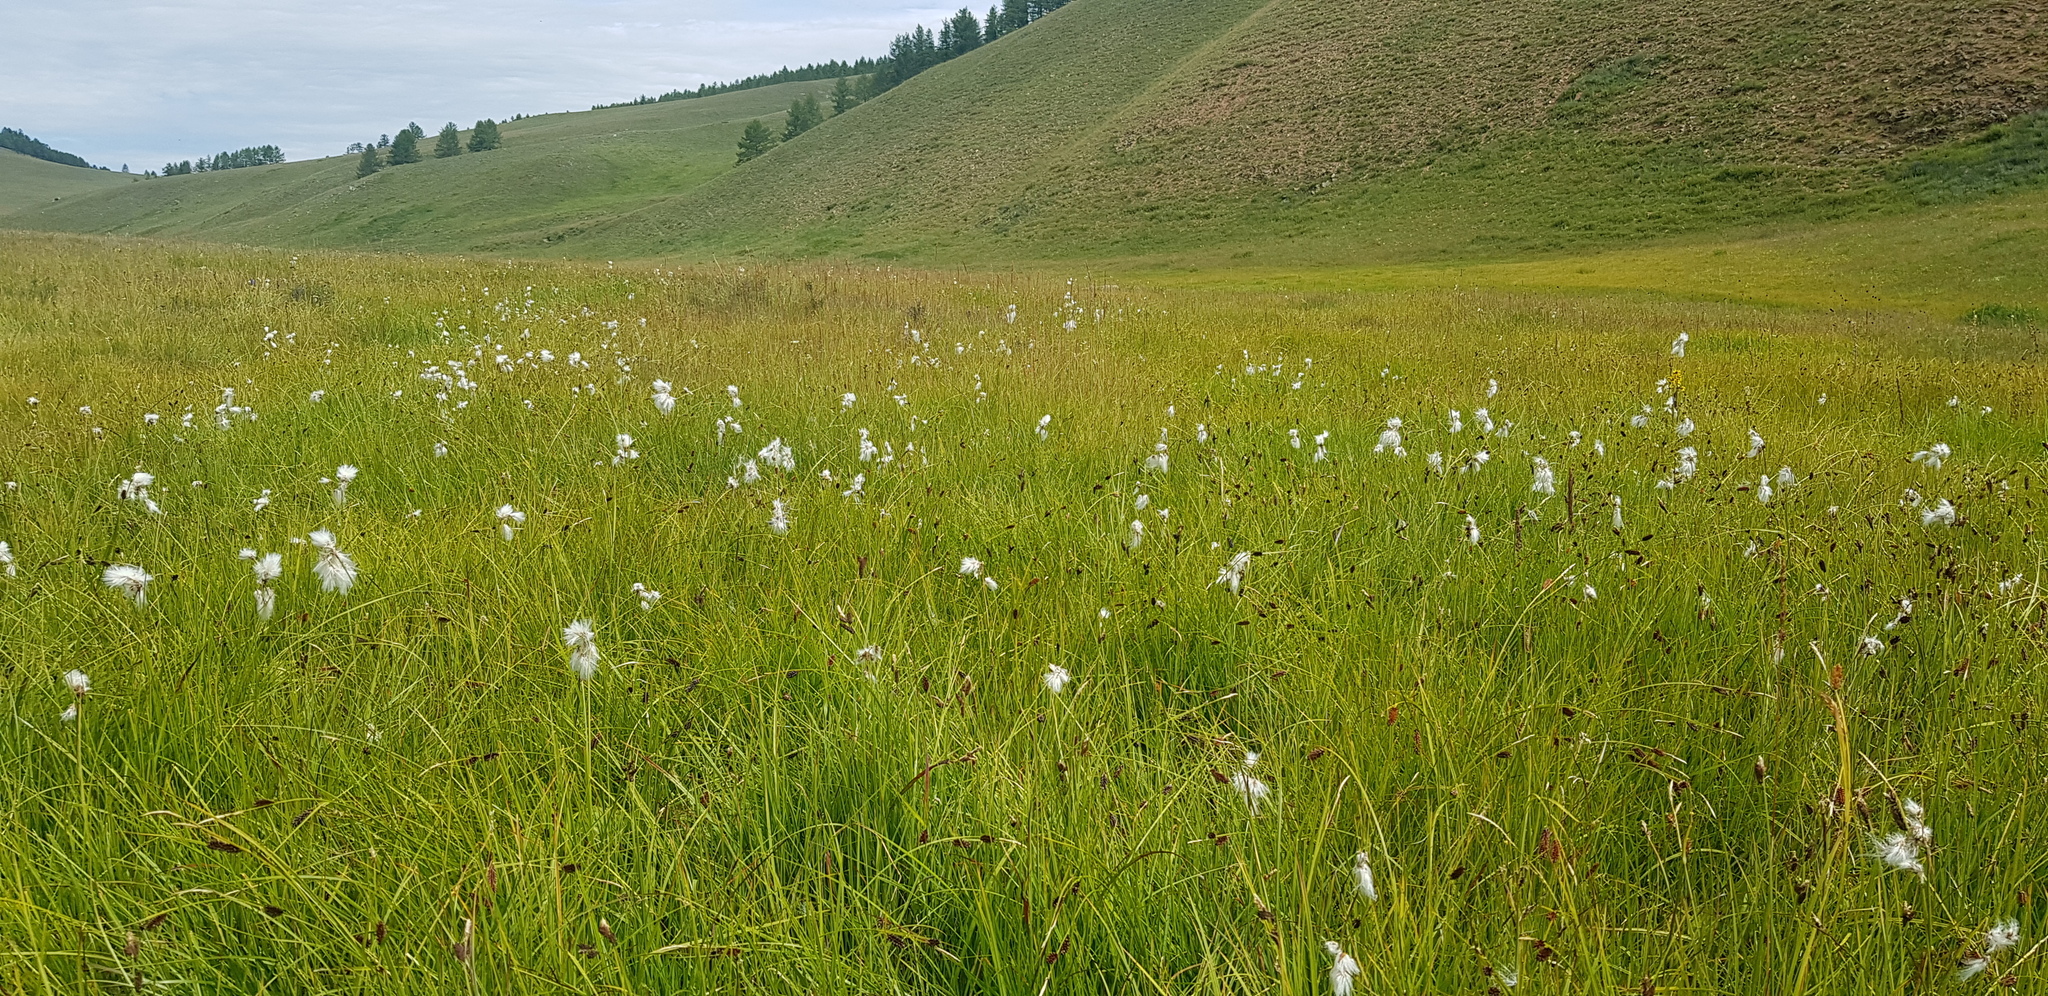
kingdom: Plantae
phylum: Tracheophyta
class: Liliopsida
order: Poales
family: Cyperaceae
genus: Eriophorum
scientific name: Eriophorum angustifolium
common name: Common cottongrass
